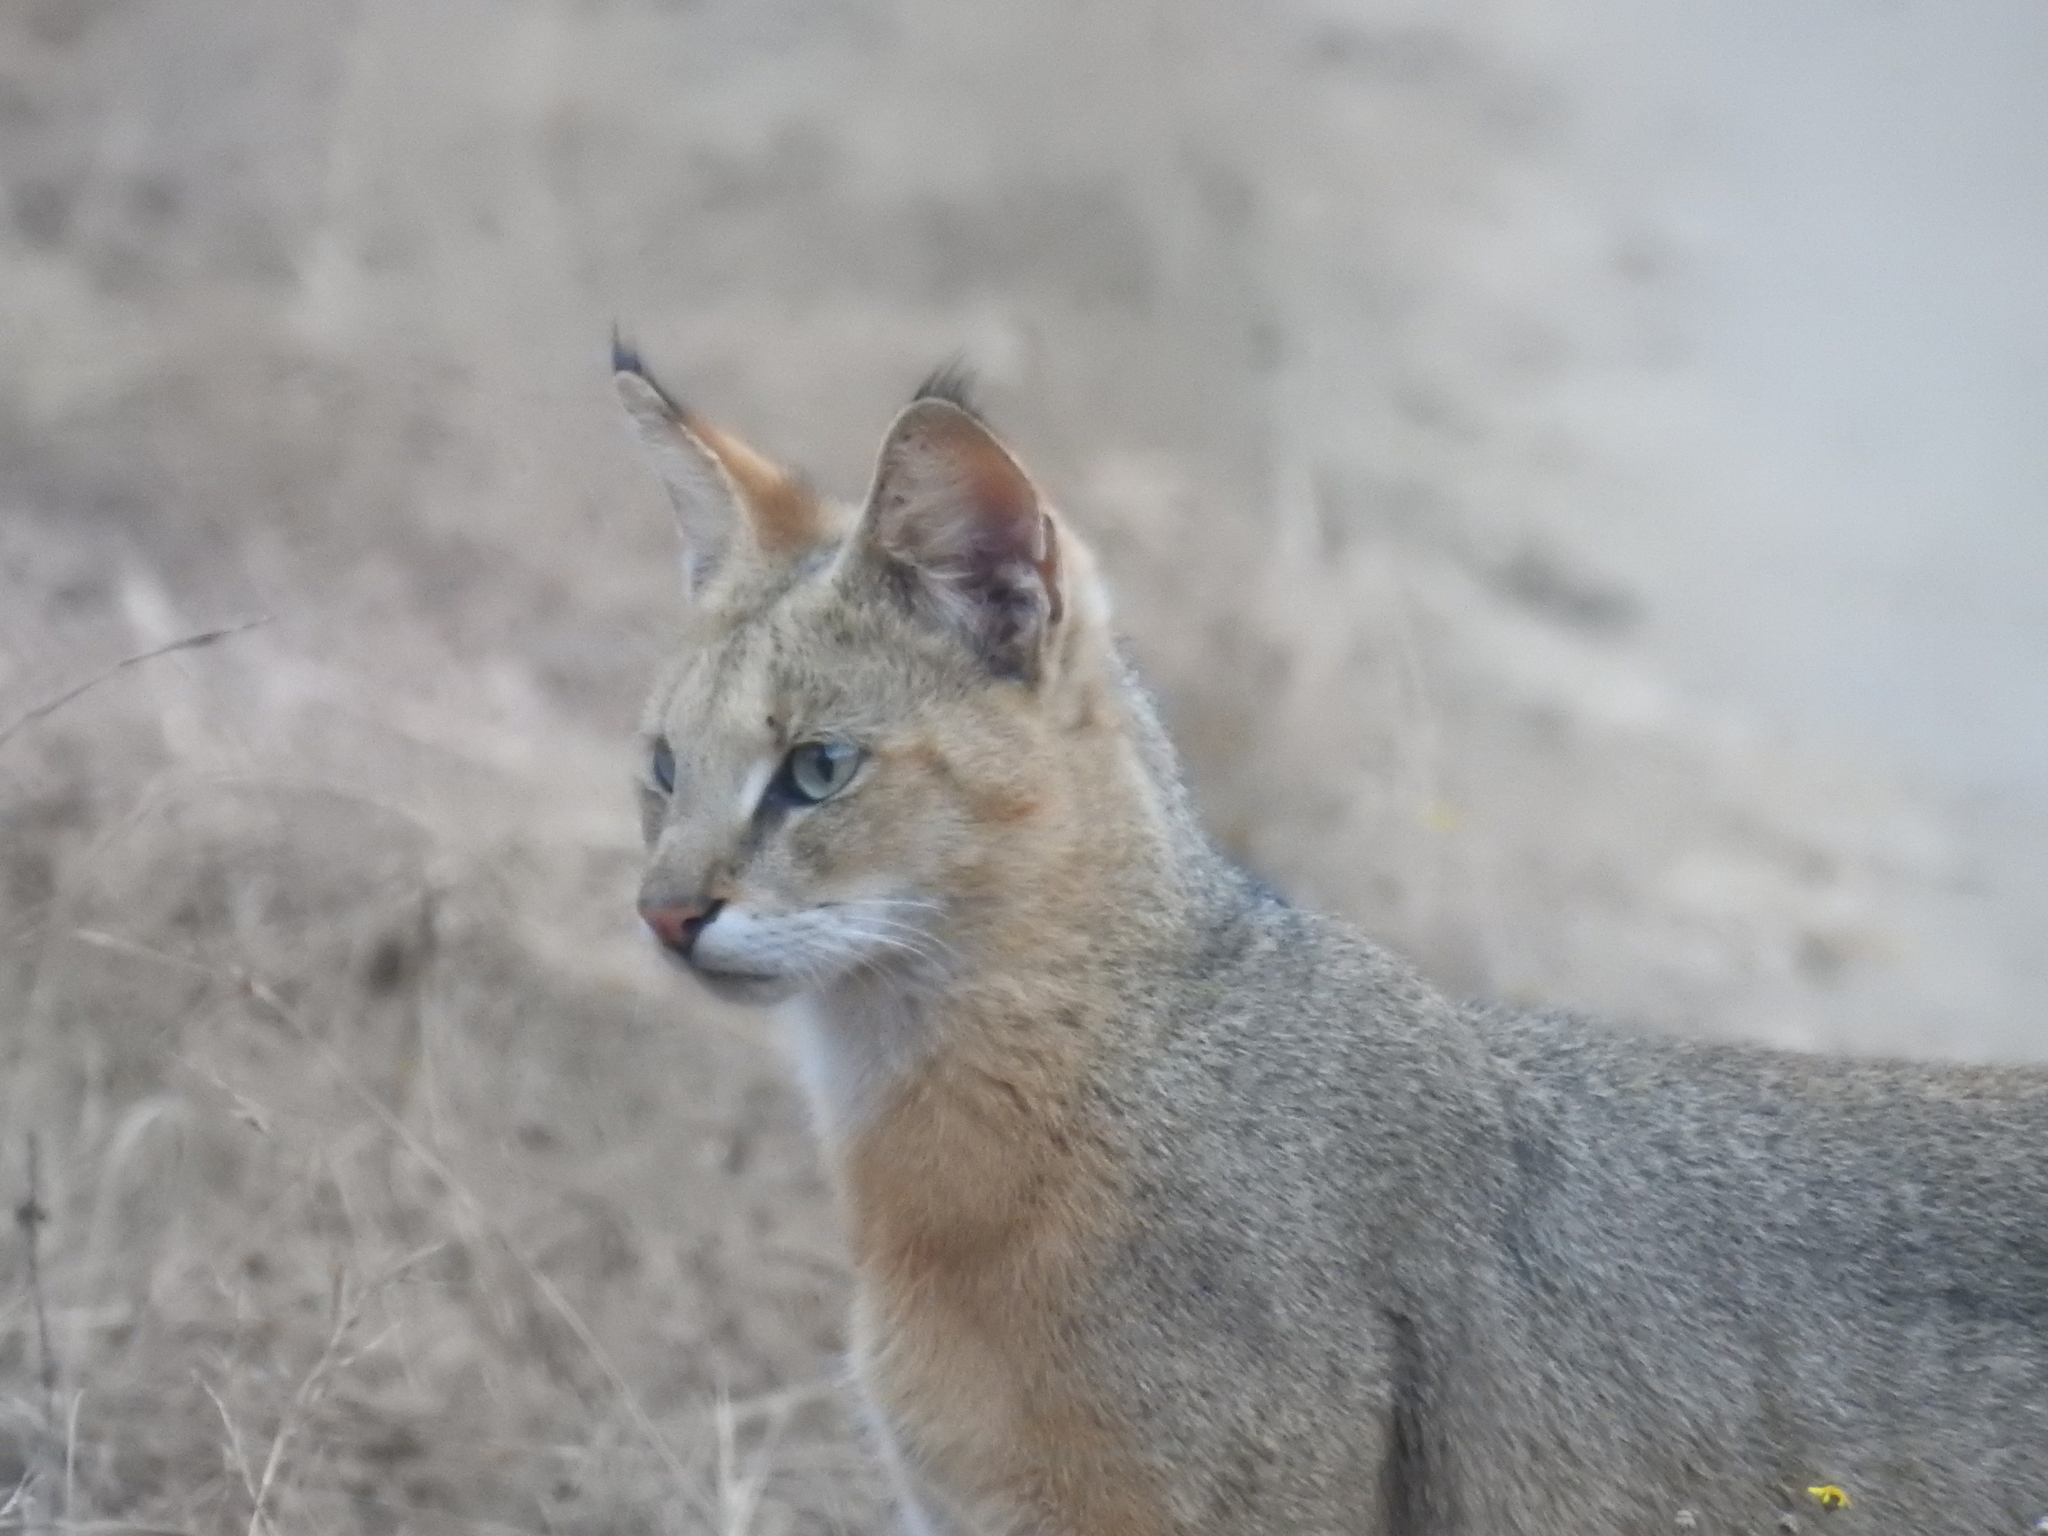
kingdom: Animalia
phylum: Chordata
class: Mammalia
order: Carnivora
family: Felidae
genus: Felis
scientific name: Felis chaus
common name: Jungle cat
